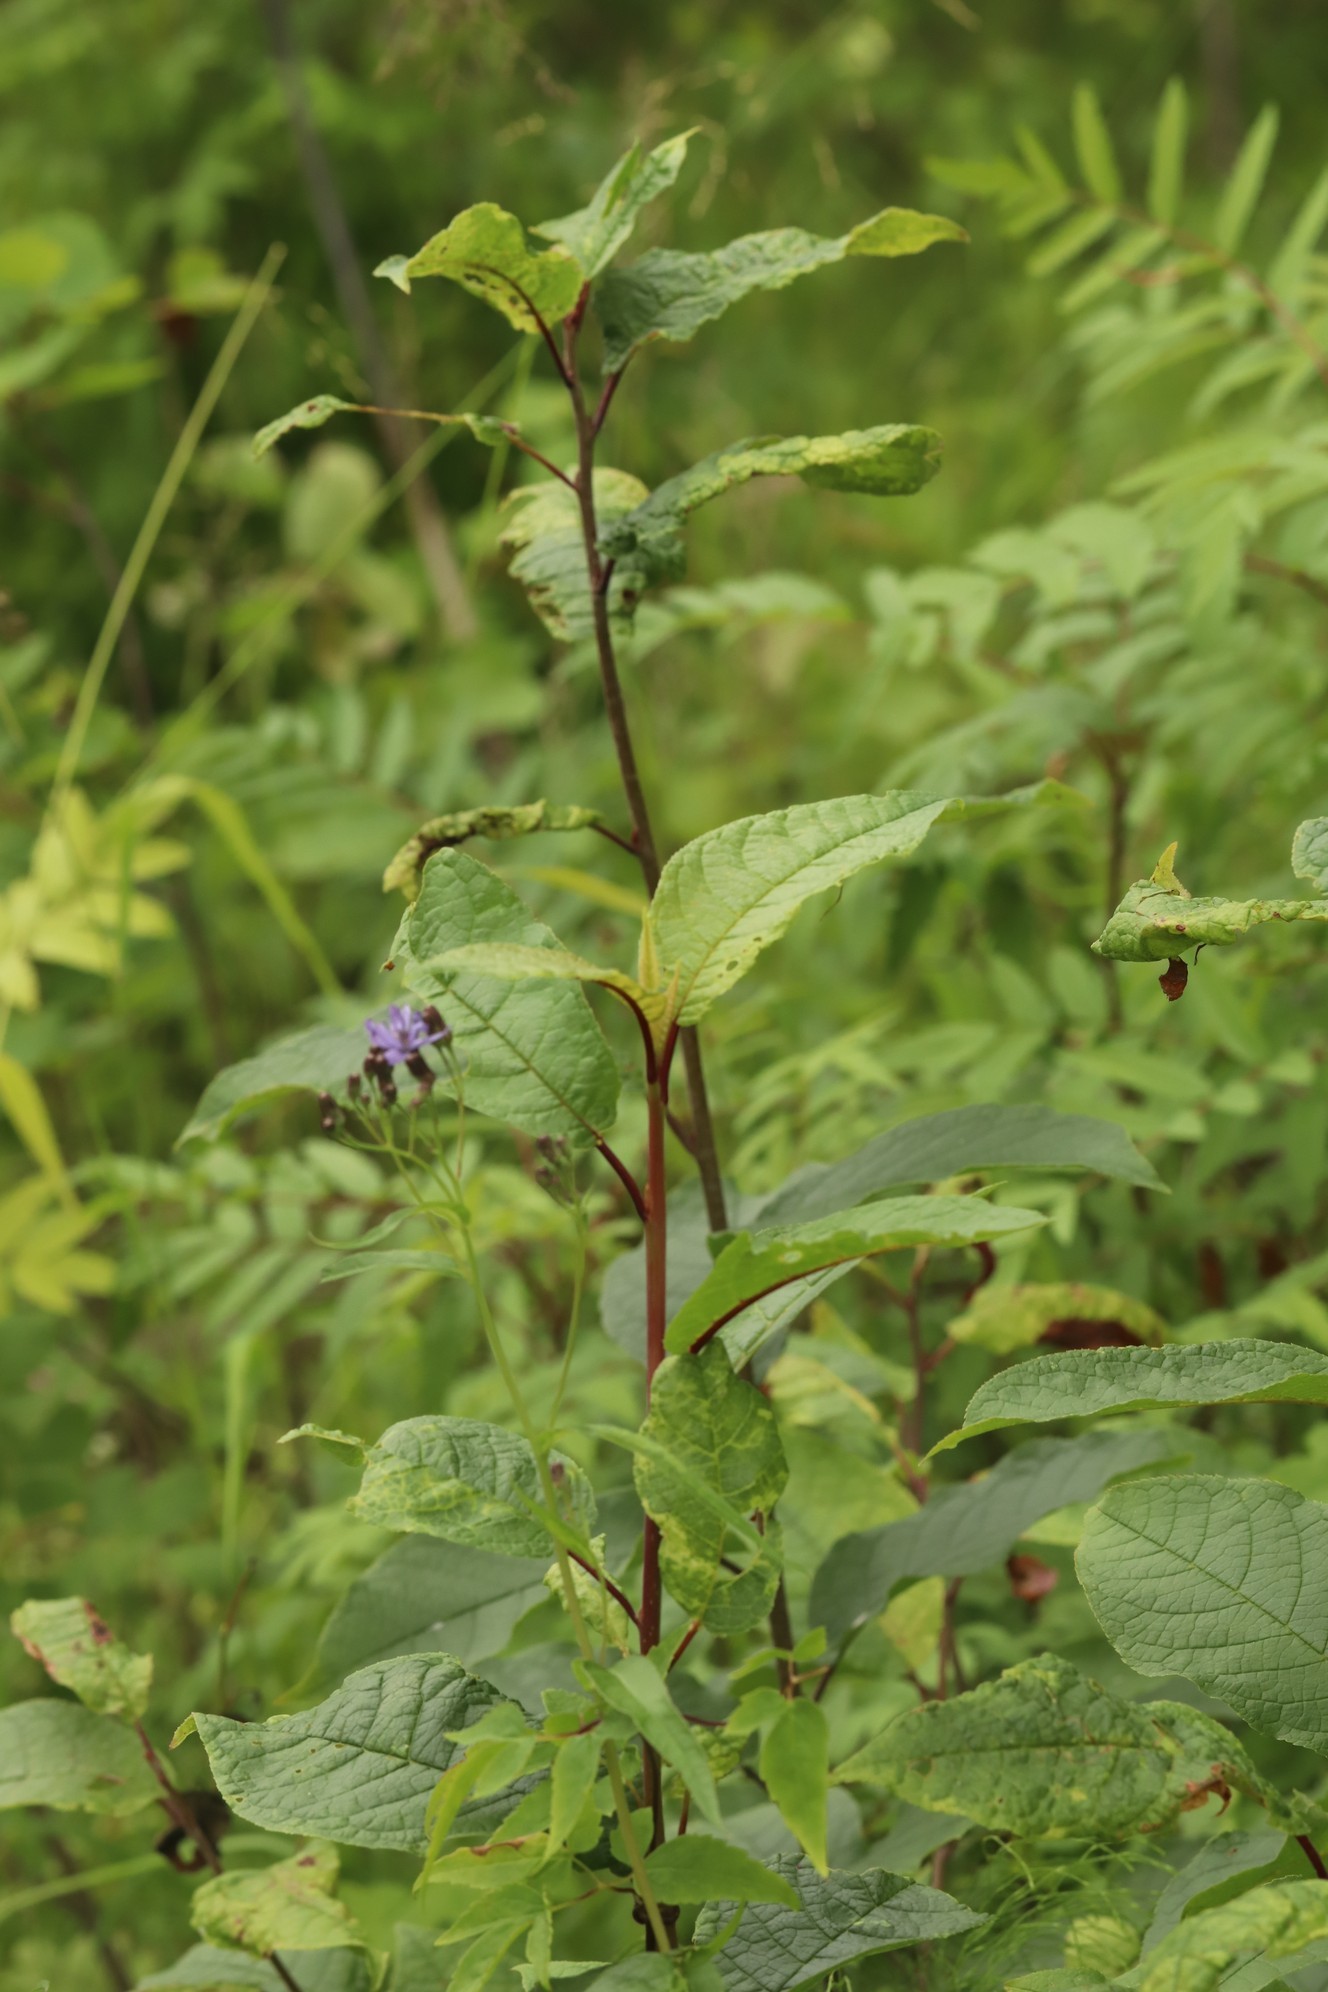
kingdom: Plantae
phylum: Tracheophyta
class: Magnoliopsida
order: Rosales
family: Rosaceae
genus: Prunus
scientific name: Prunus padus
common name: Bird cherry
